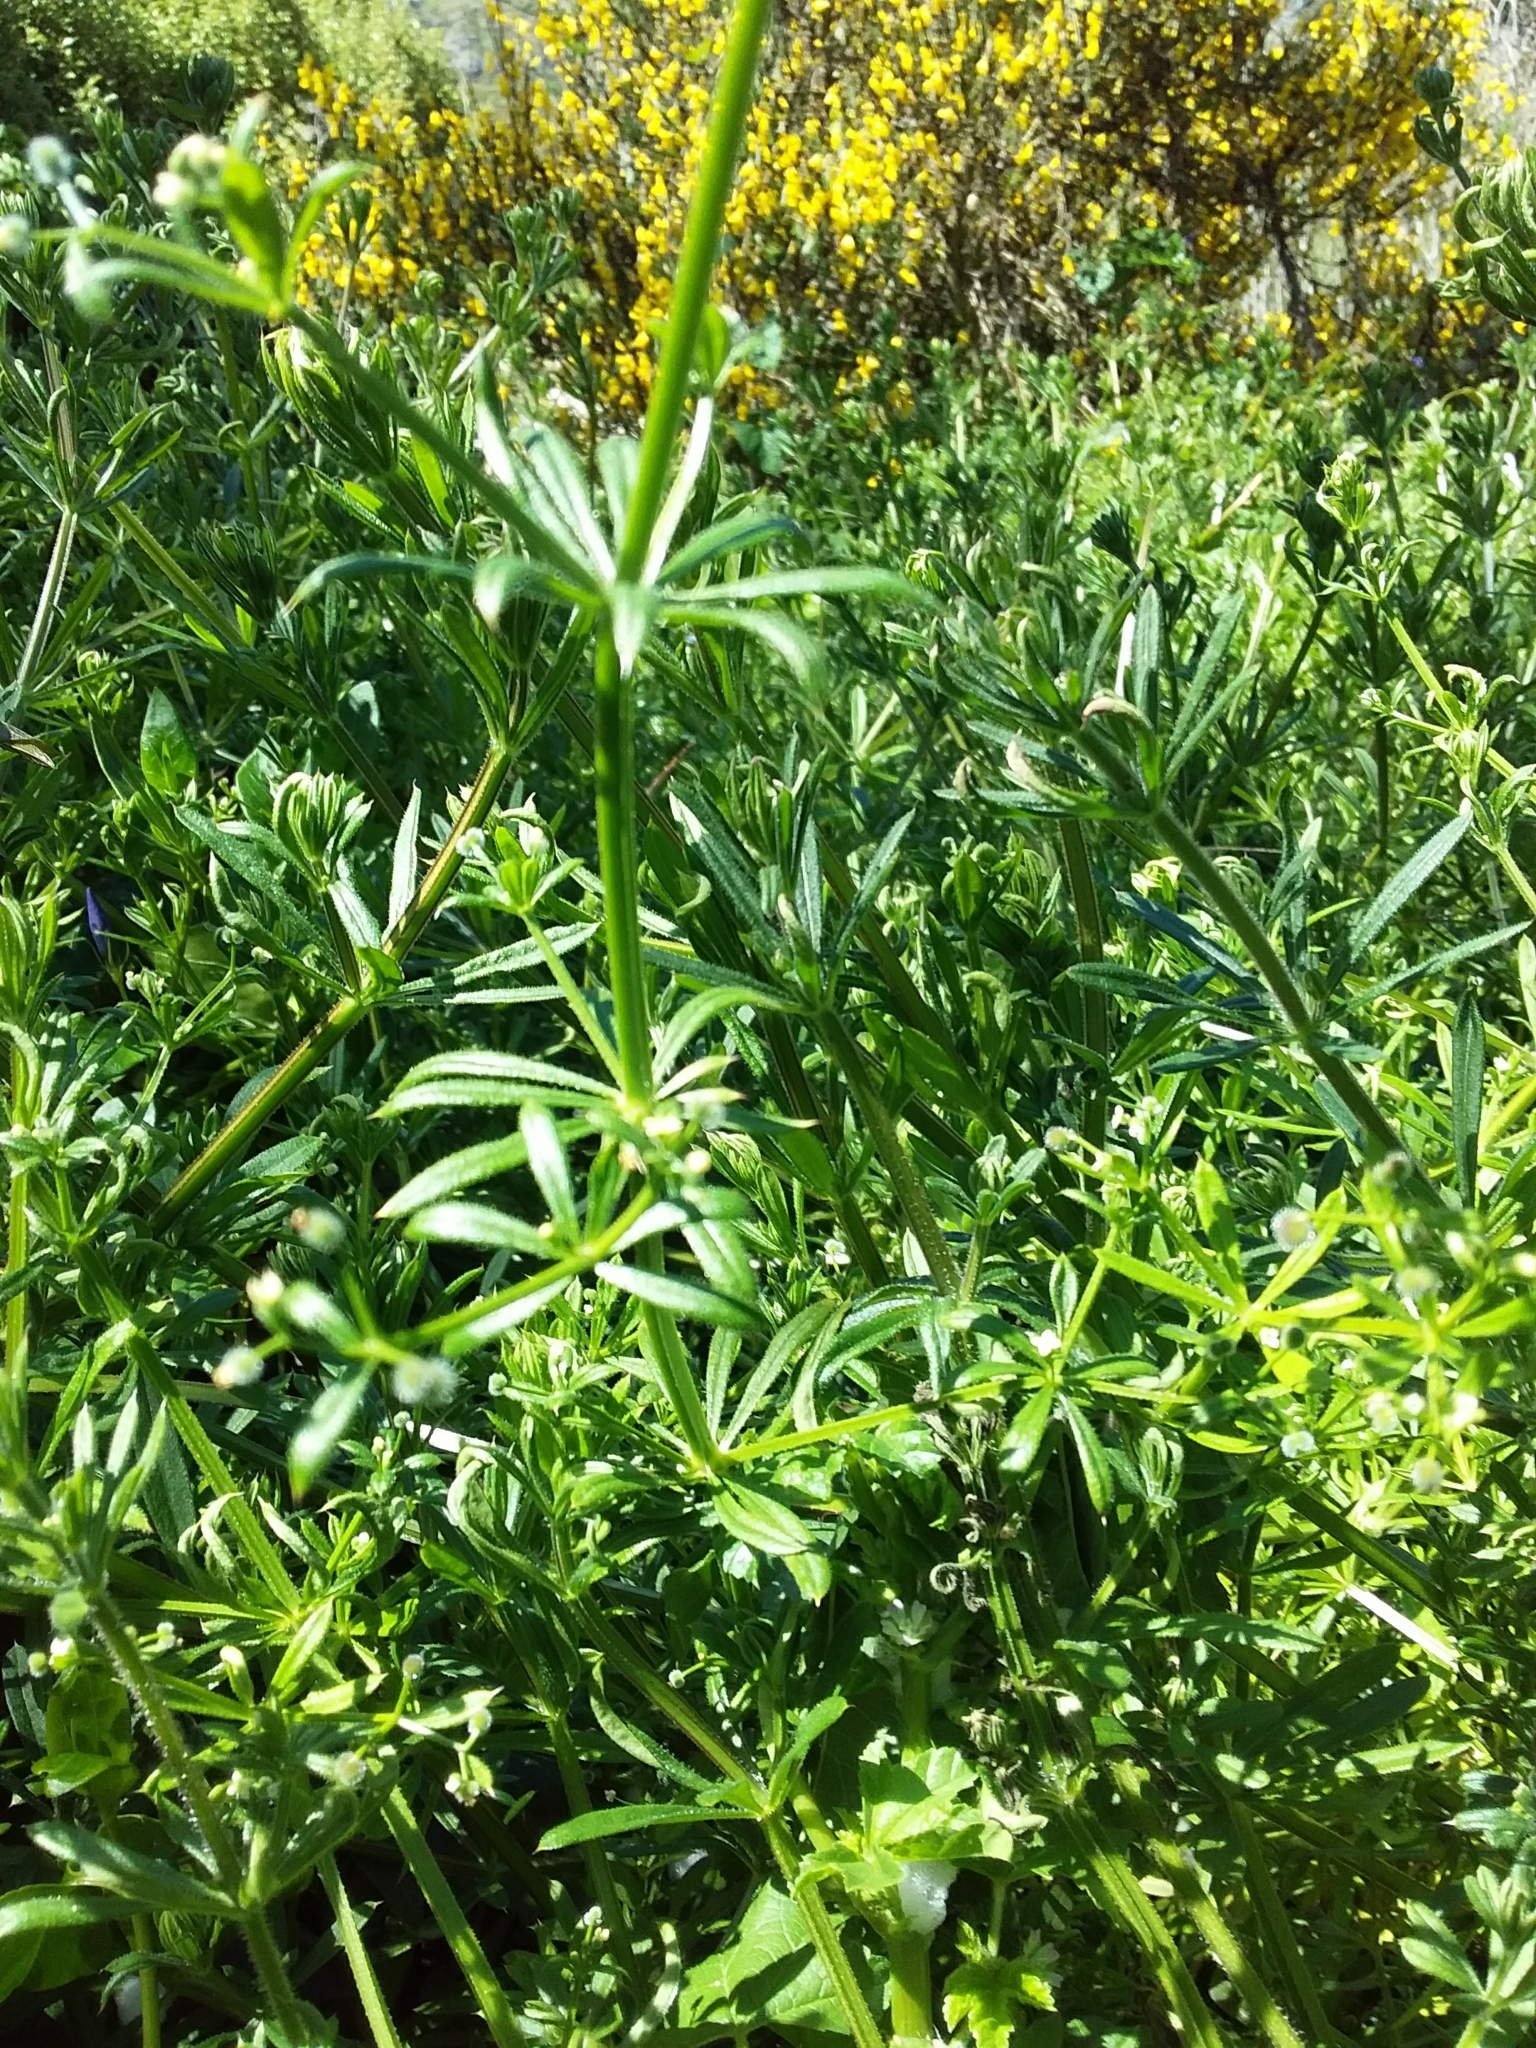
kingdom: Plantae
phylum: Tracheophyta
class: Magnoliopsida
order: Gentianales
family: Rubiaceae
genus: Galium
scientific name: Galium aparine
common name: Cleavers
